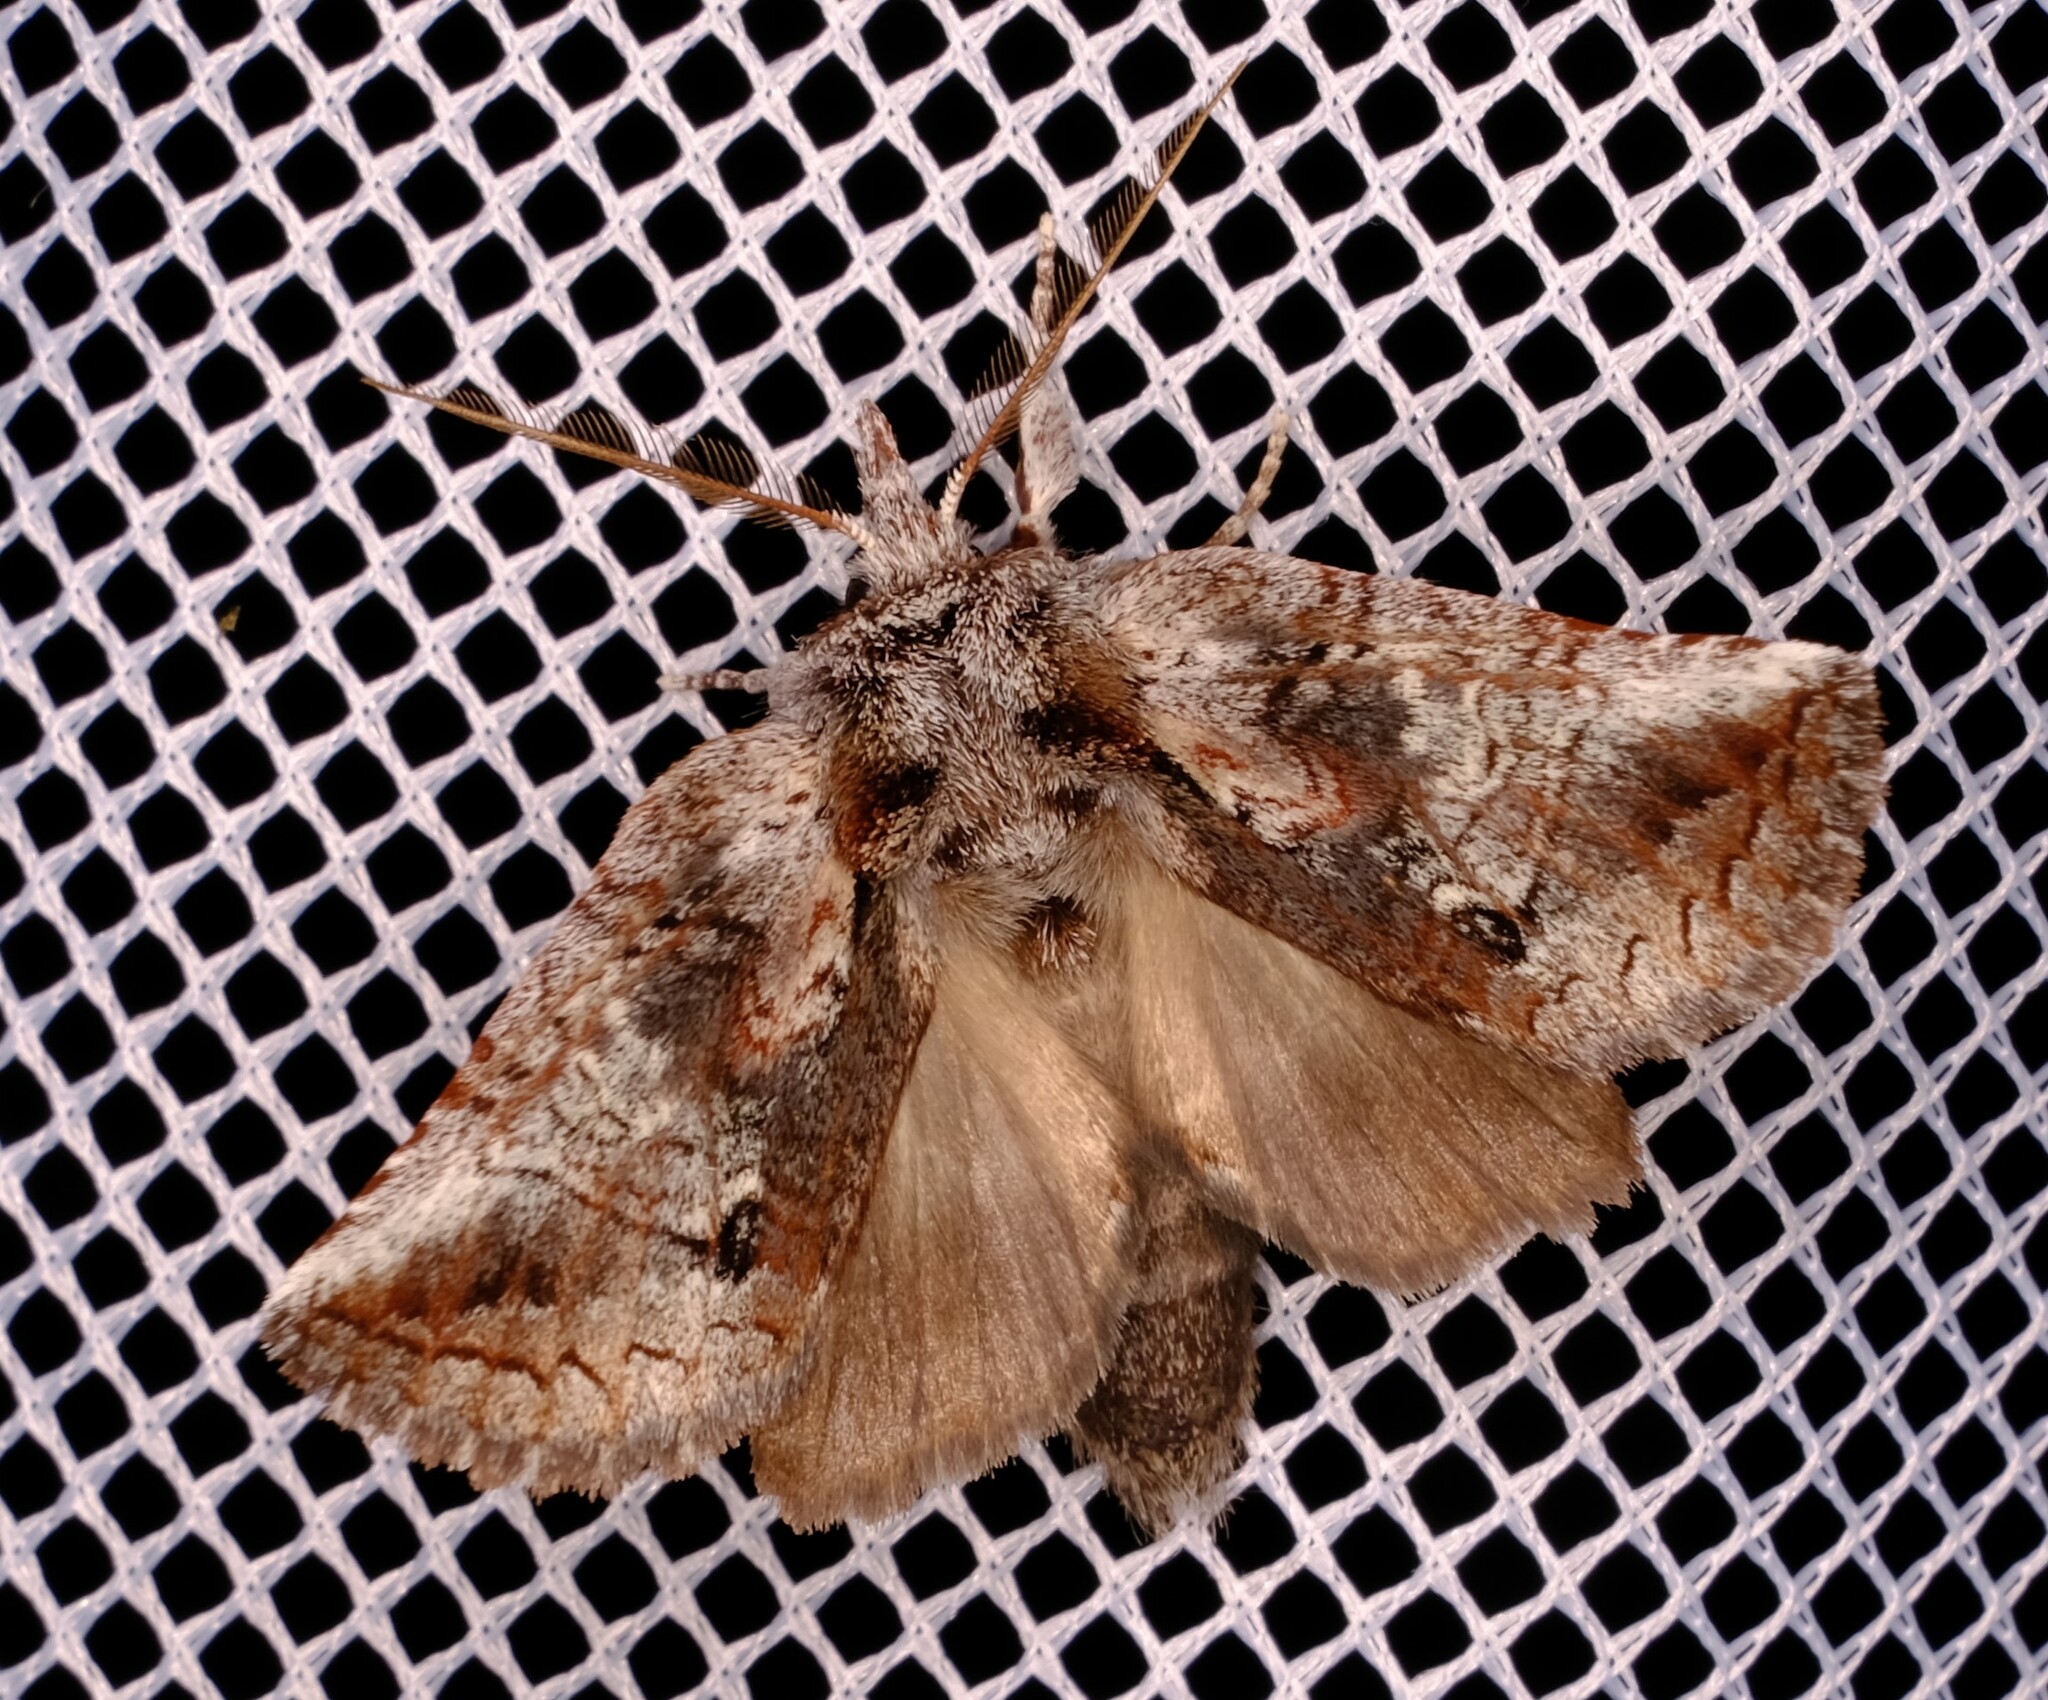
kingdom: Animalia
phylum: Arthropoda
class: Insecta
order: Lepidoptera
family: Notodontidae
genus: Gallaba
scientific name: Gallaba eugraphes
